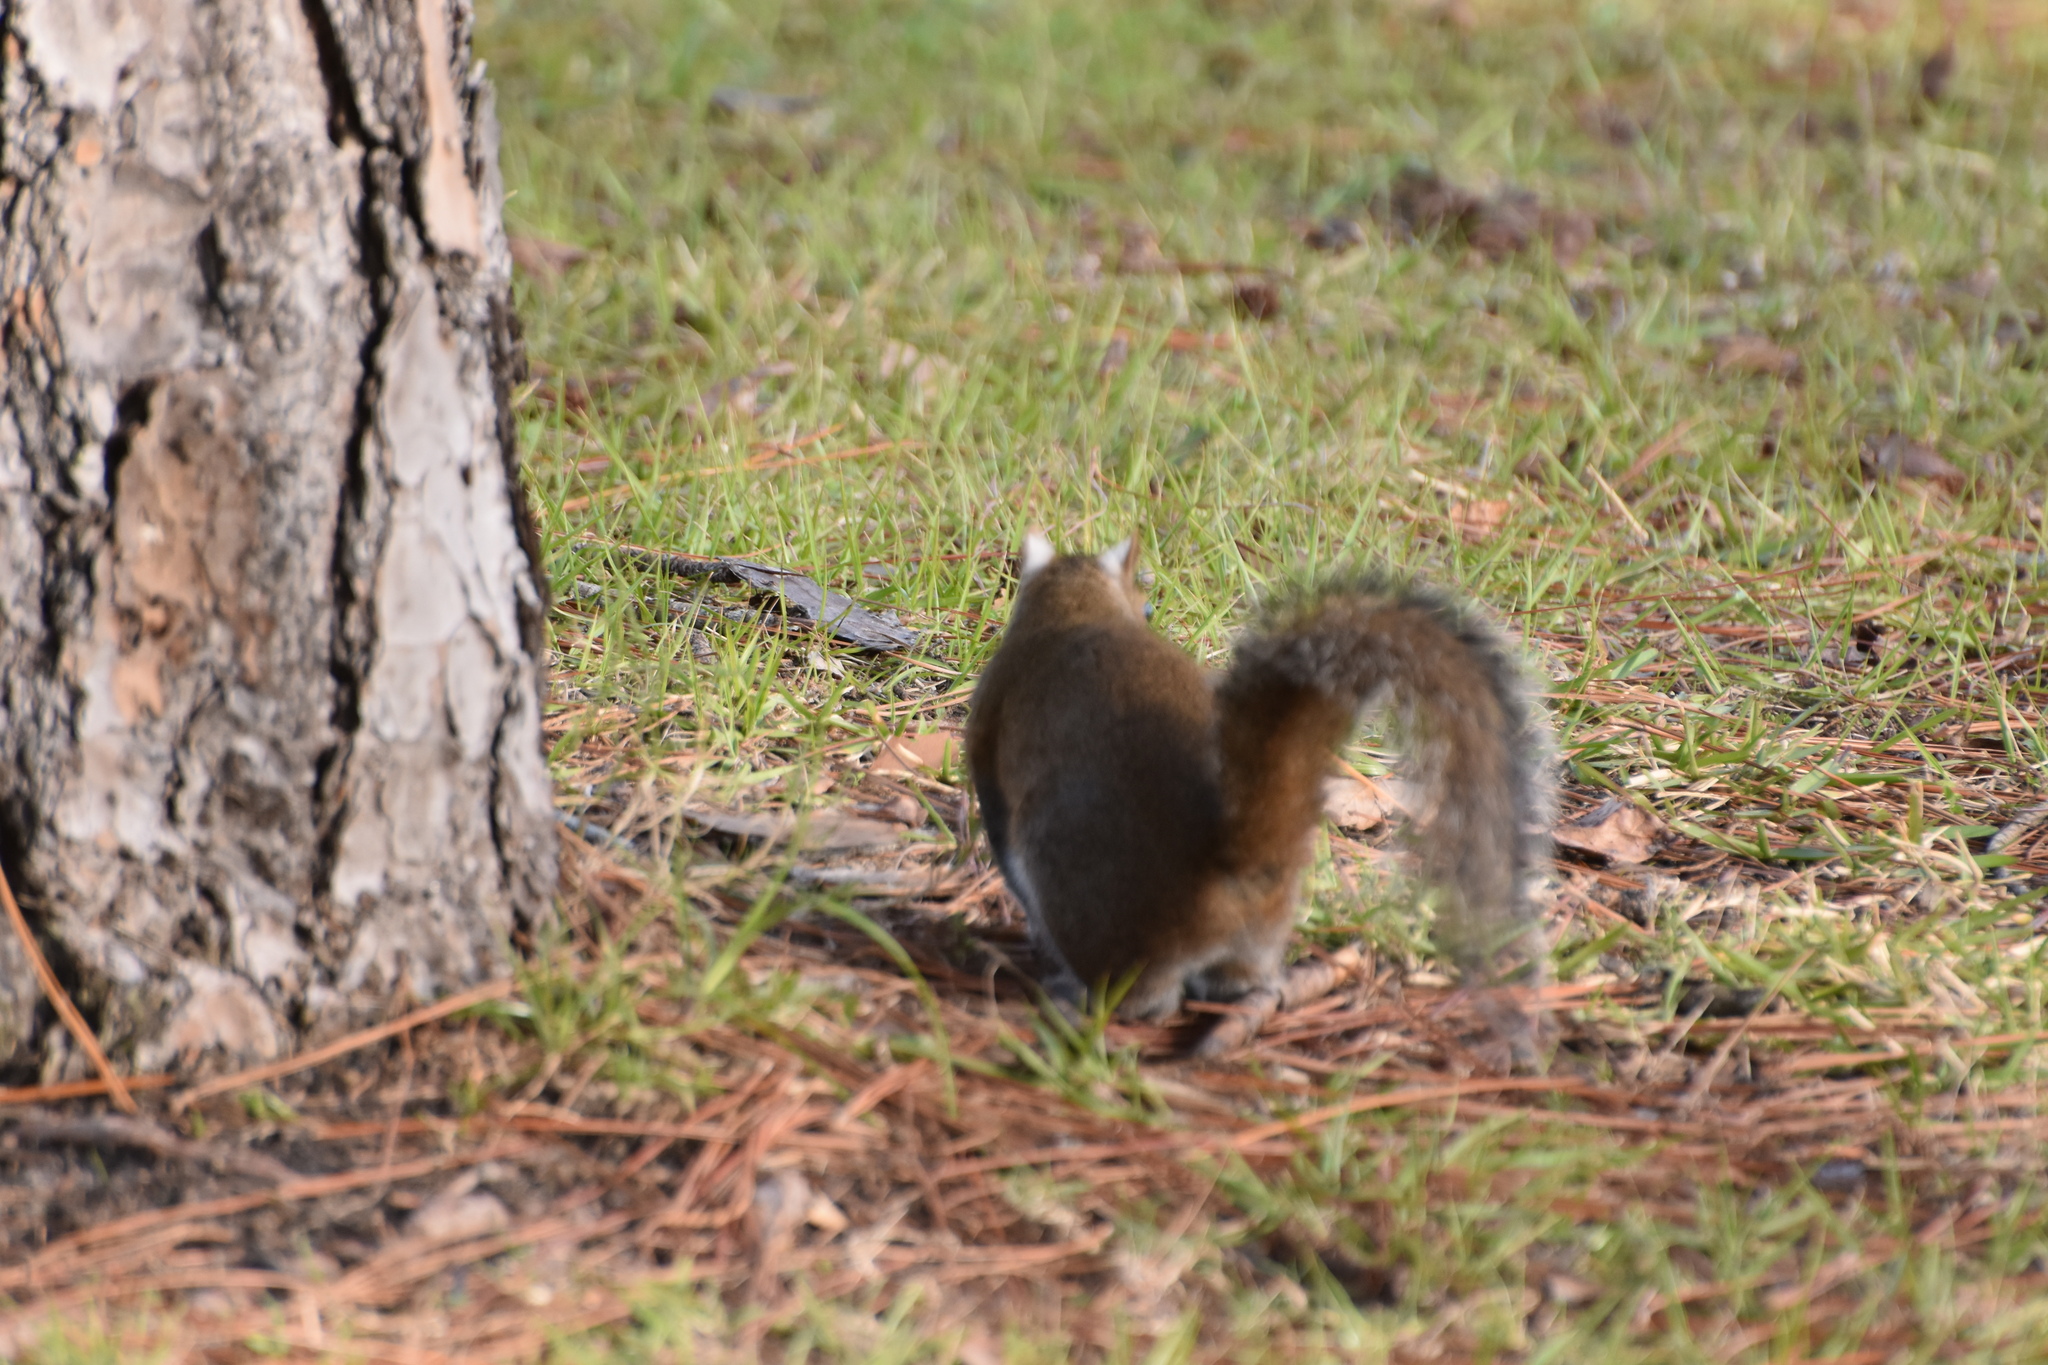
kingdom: Animalia
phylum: Chordata
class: Mammalia
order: Rodentia
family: Sciuridae
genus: Sciurus
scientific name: Sciurus carolinensis
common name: Eastern gray squirrel
